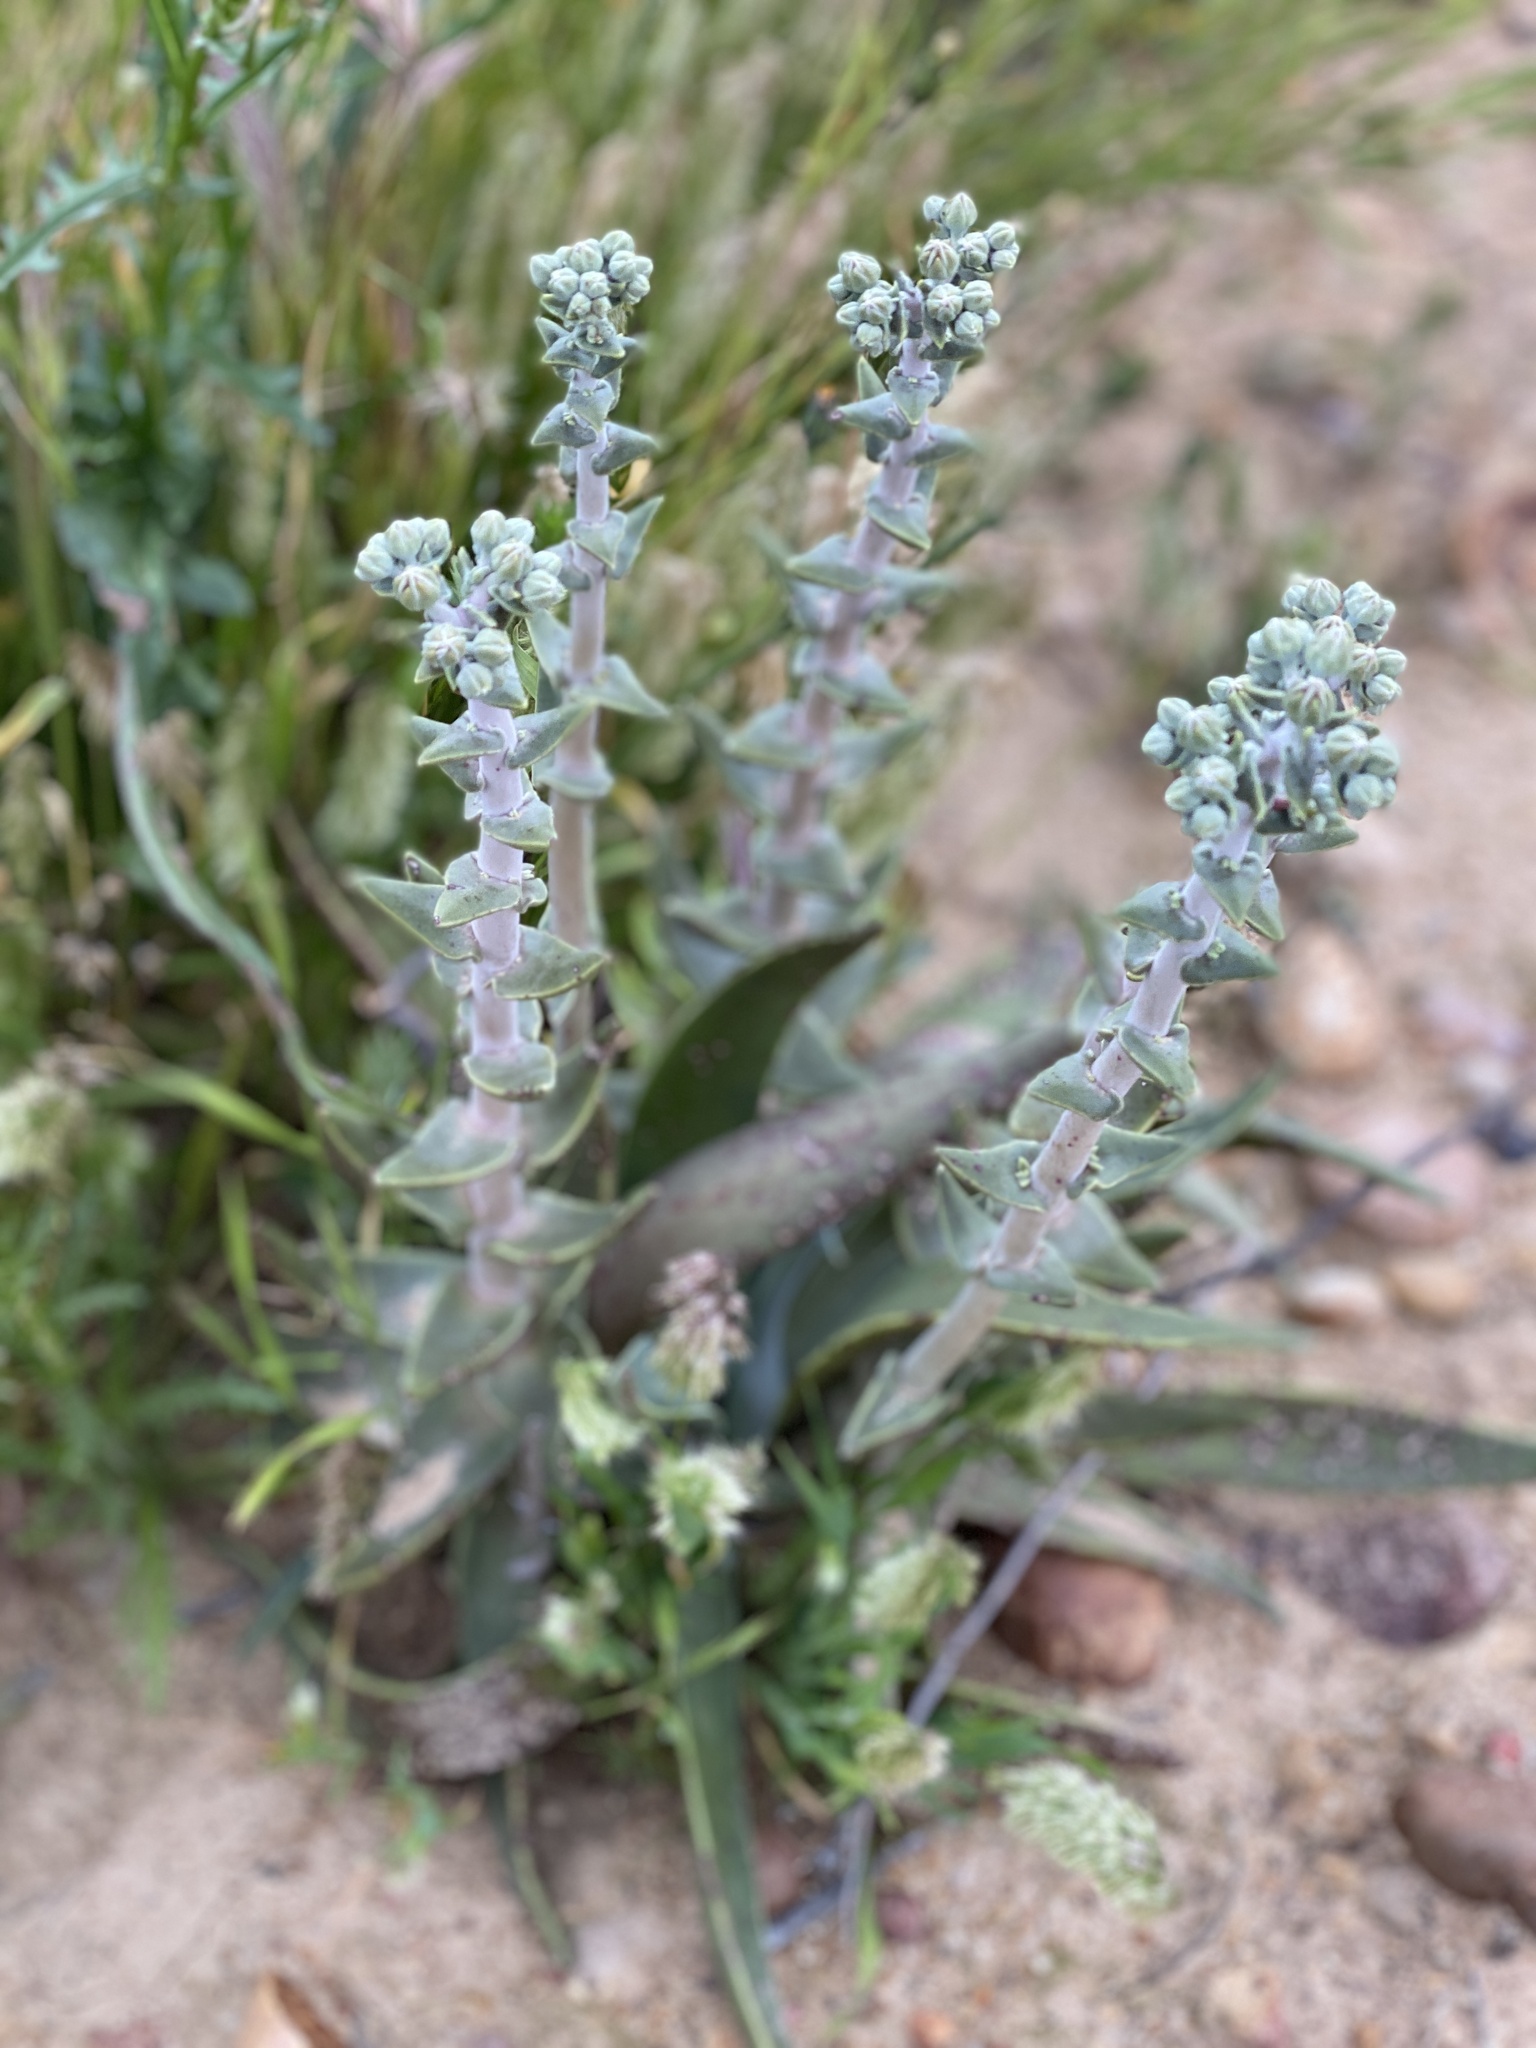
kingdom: Plantae
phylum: Tracheophyta
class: Magnoliopsida
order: Saxifragales
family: Crassulaceae
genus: Dudleya
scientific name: Dudleya lanceolata
